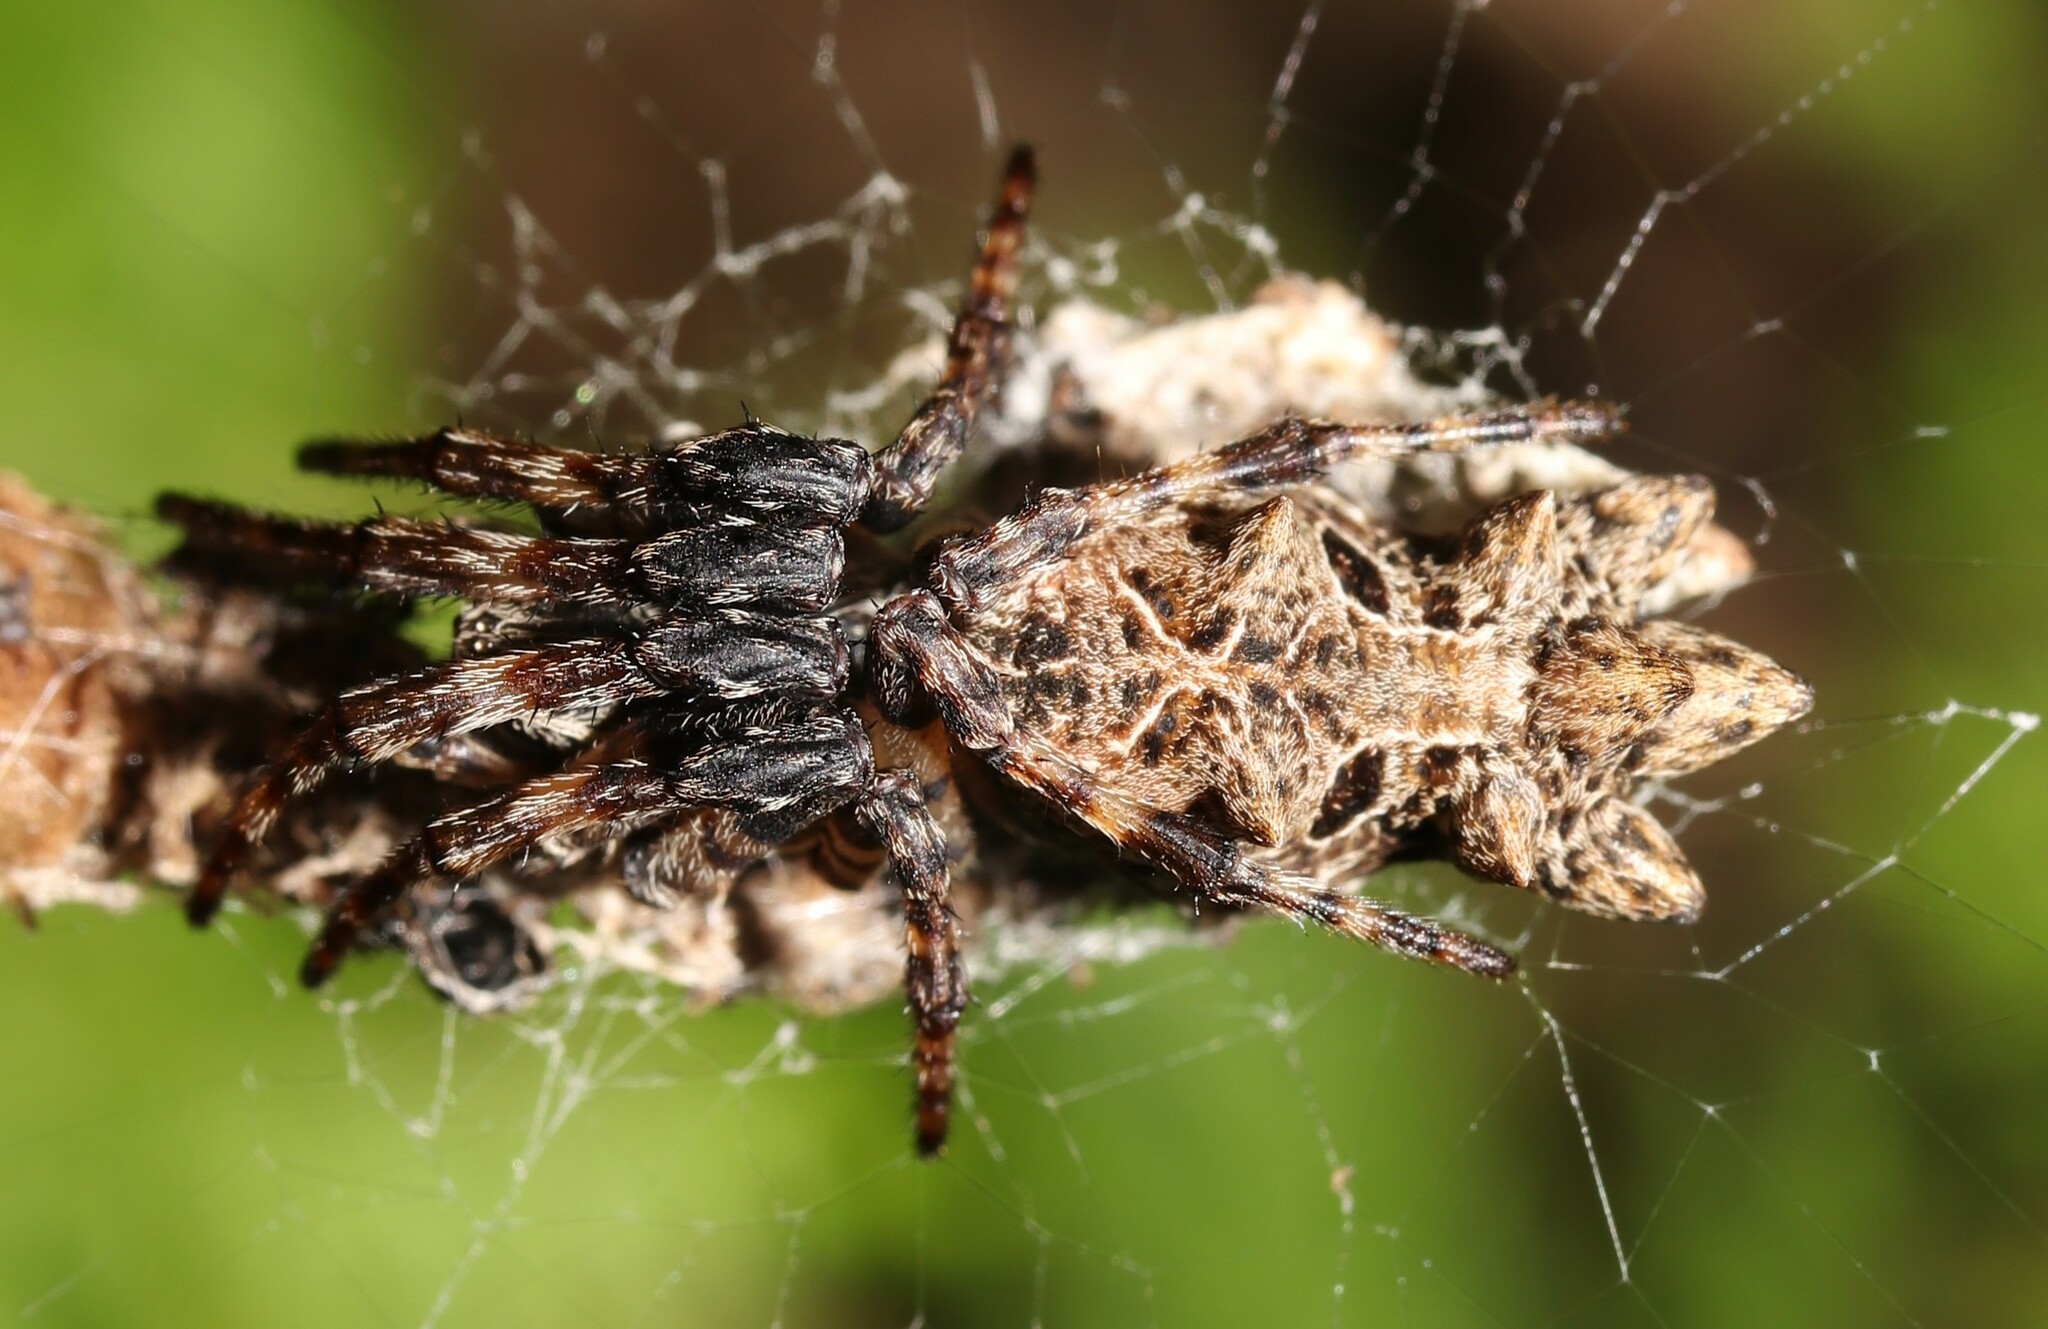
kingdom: Animalia
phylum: Arthropoda
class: Arachnida
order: Araneae
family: Araneidae
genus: Cyclosa
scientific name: Cyclosa octotuberculata
